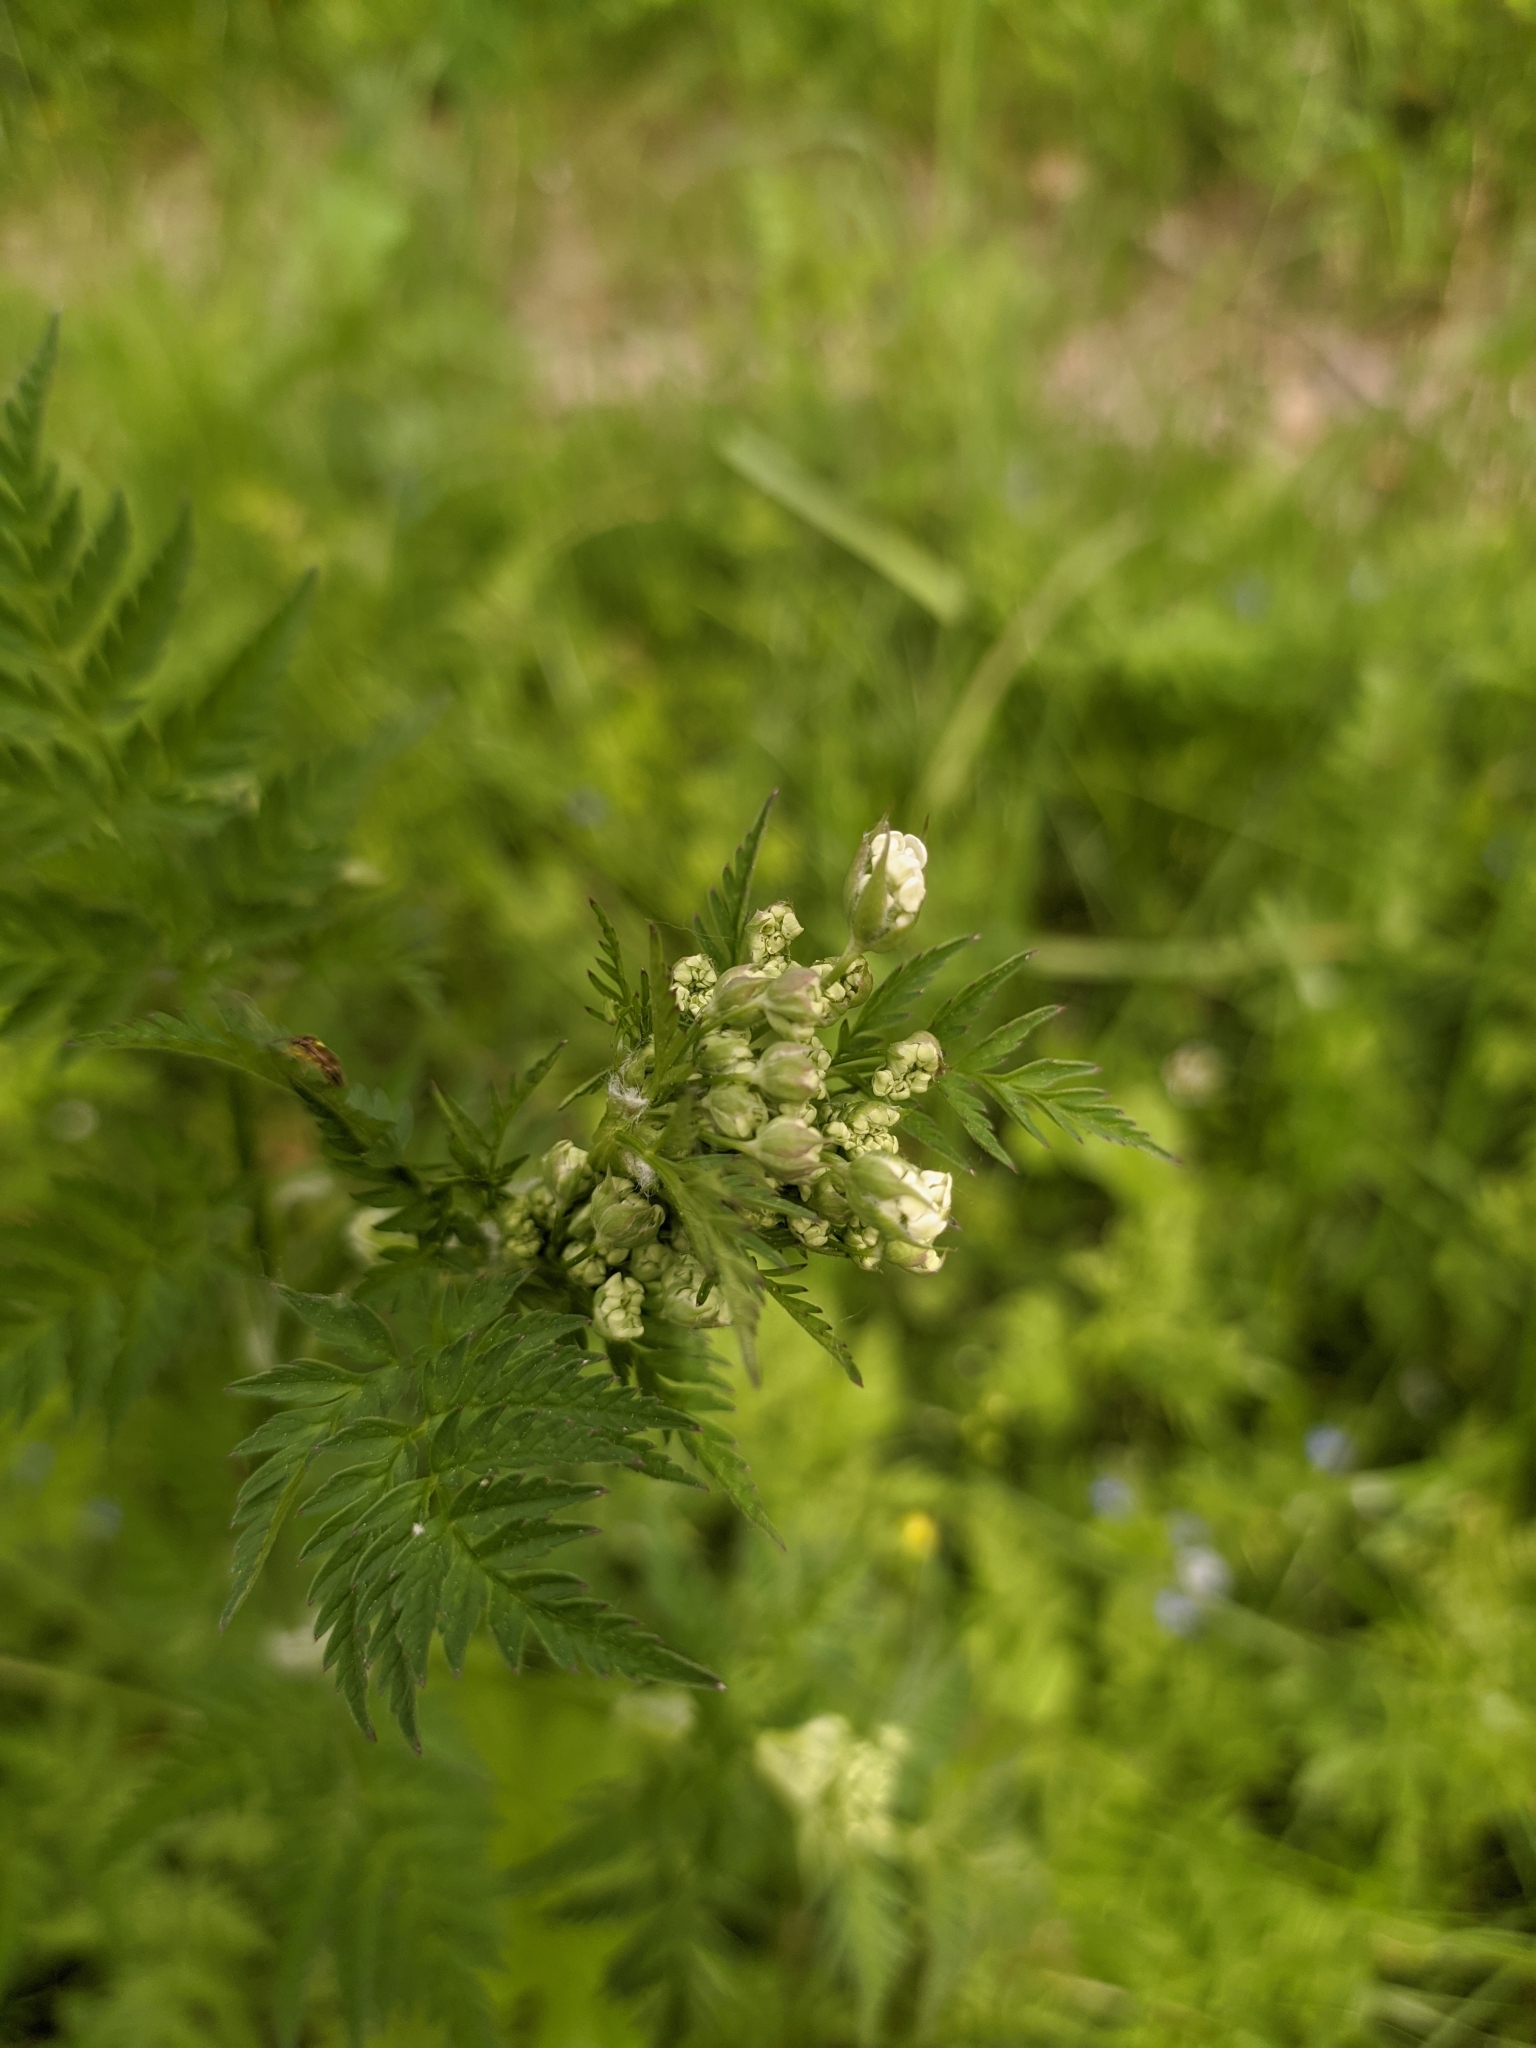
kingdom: Plantae
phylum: Tracheophyta
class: Magnoliopsida
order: Apiales
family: Apiaceae
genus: Anthriscus
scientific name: Anthriscus sylvestris
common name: Cow parsley
